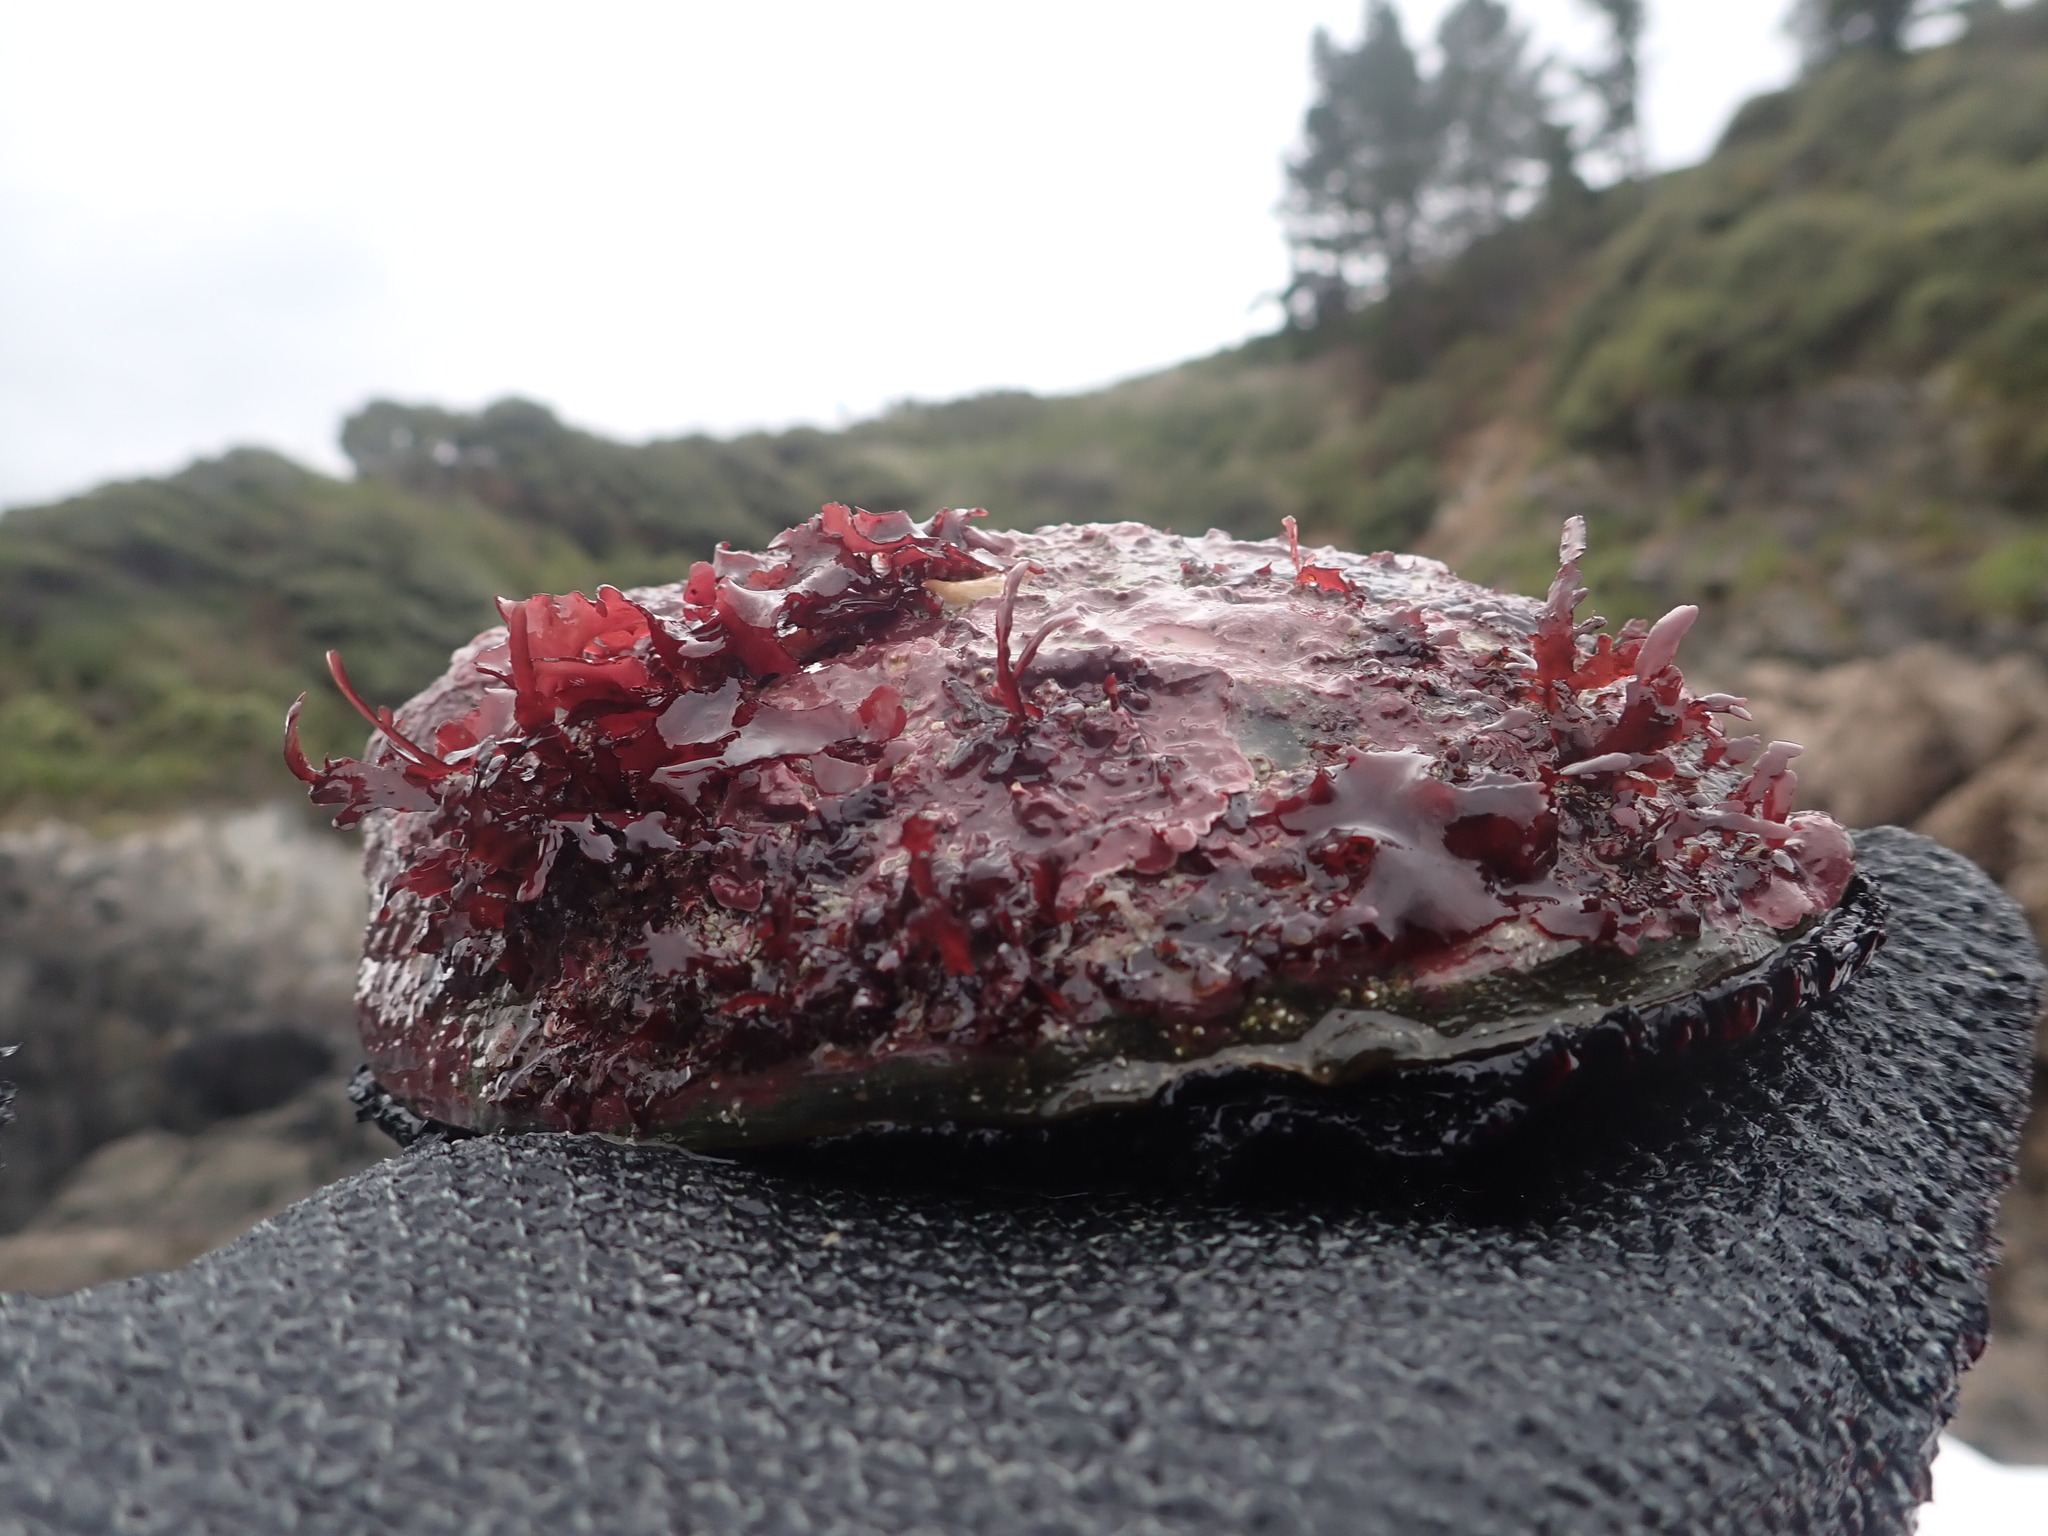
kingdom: Animalia
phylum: Mollusca
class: Gastropoda
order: Lepetellida
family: Haliotidae
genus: Haliotis
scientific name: Haliotis iris
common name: Abalone
